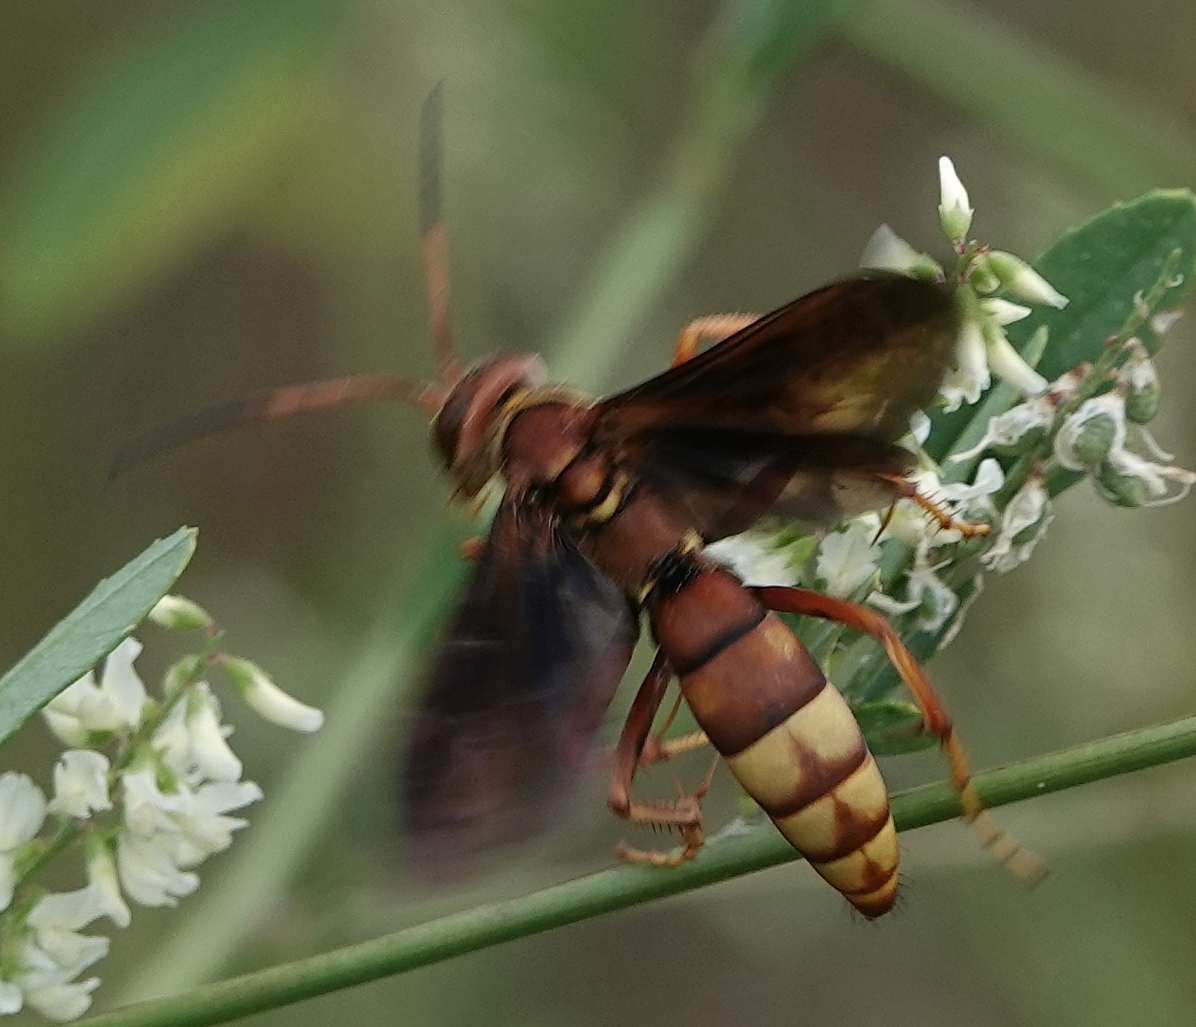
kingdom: Animalia
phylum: Arthropoda
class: Insecta
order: Hymenoptera
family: Pompilidae
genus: Poecilopompilus
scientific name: Poecilopompilus algidus
